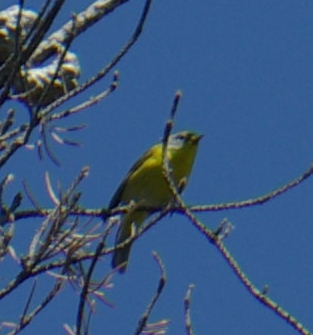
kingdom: Animalia
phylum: Chordata
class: Aves
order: Passeriformes
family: Parulidae
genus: Leiothlypis
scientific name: Leiothlypis ruficapilla
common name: Nashville warbler
